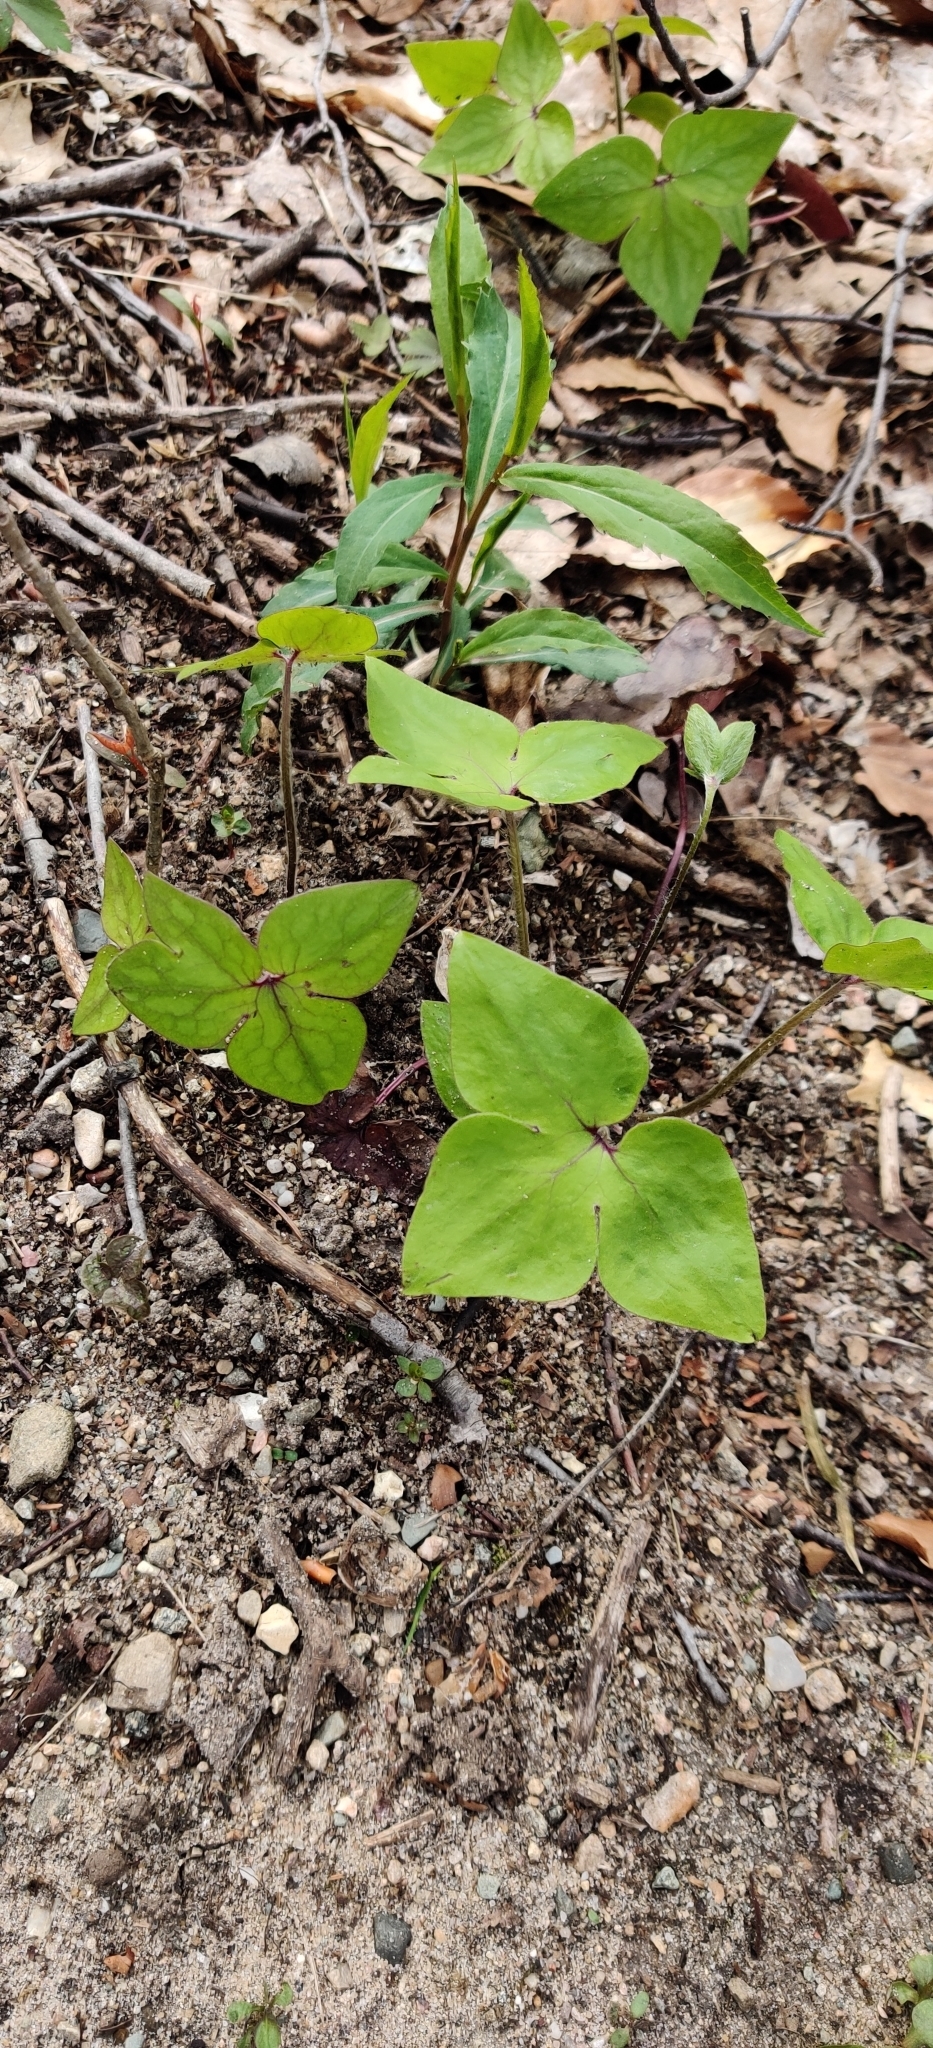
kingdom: Plantae
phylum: Tracheophyta
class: Magnoliopsida
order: Ranunculales
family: Ranunculaceae
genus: Hepatica
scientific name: Hepatica acutiloba
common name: Sharp-lobed hepatica
